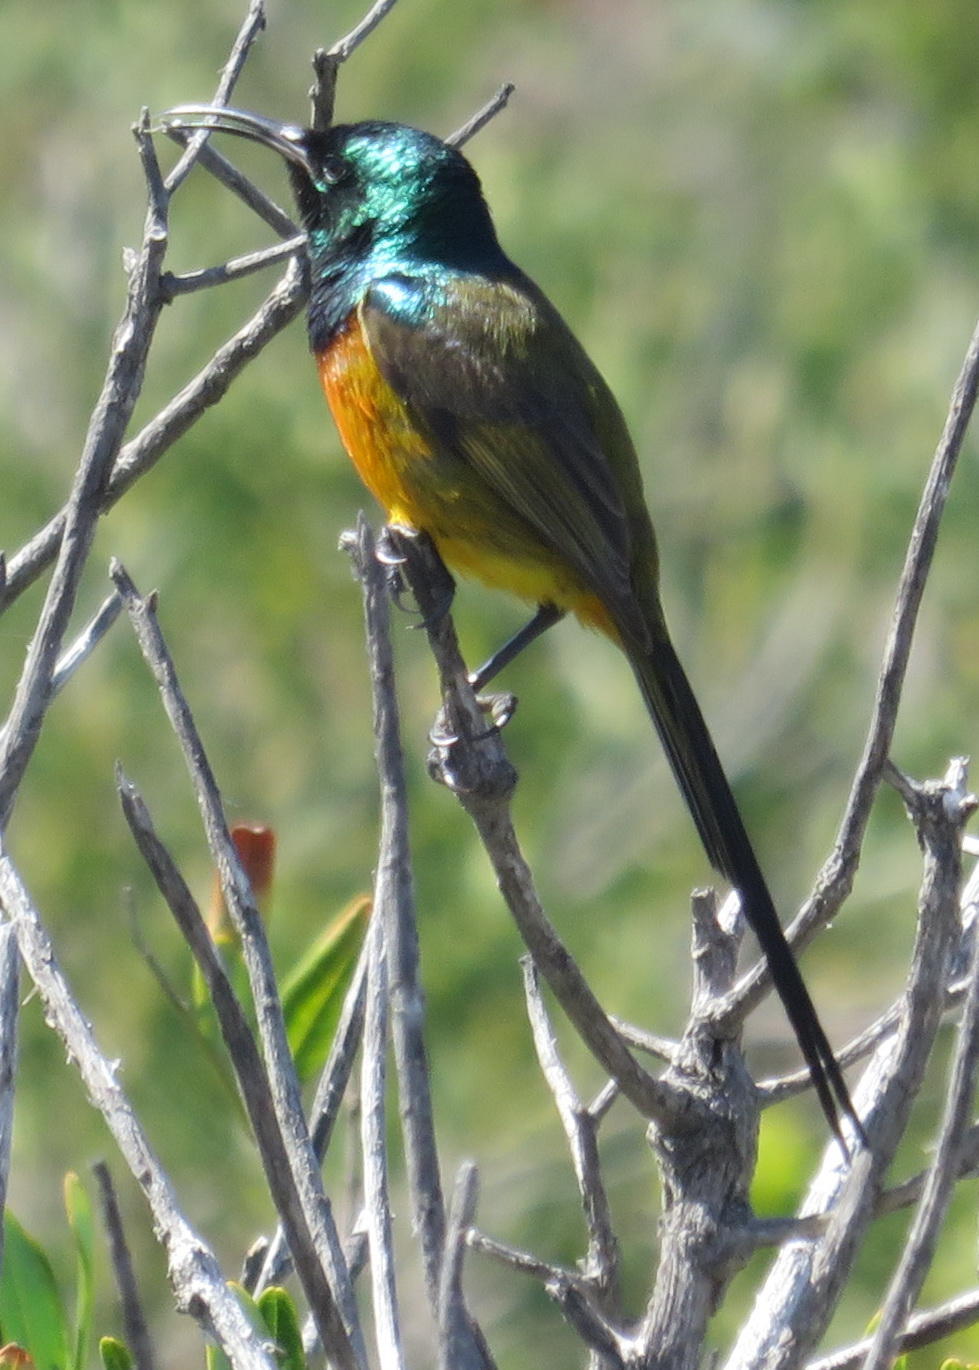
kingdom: Animalia
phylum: Chordata
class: Aves
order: Passeriformes
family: Nectariniidae
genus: Anthobaphes
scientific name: Anthobaphes violacea
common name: Orange-breasted sunbird
